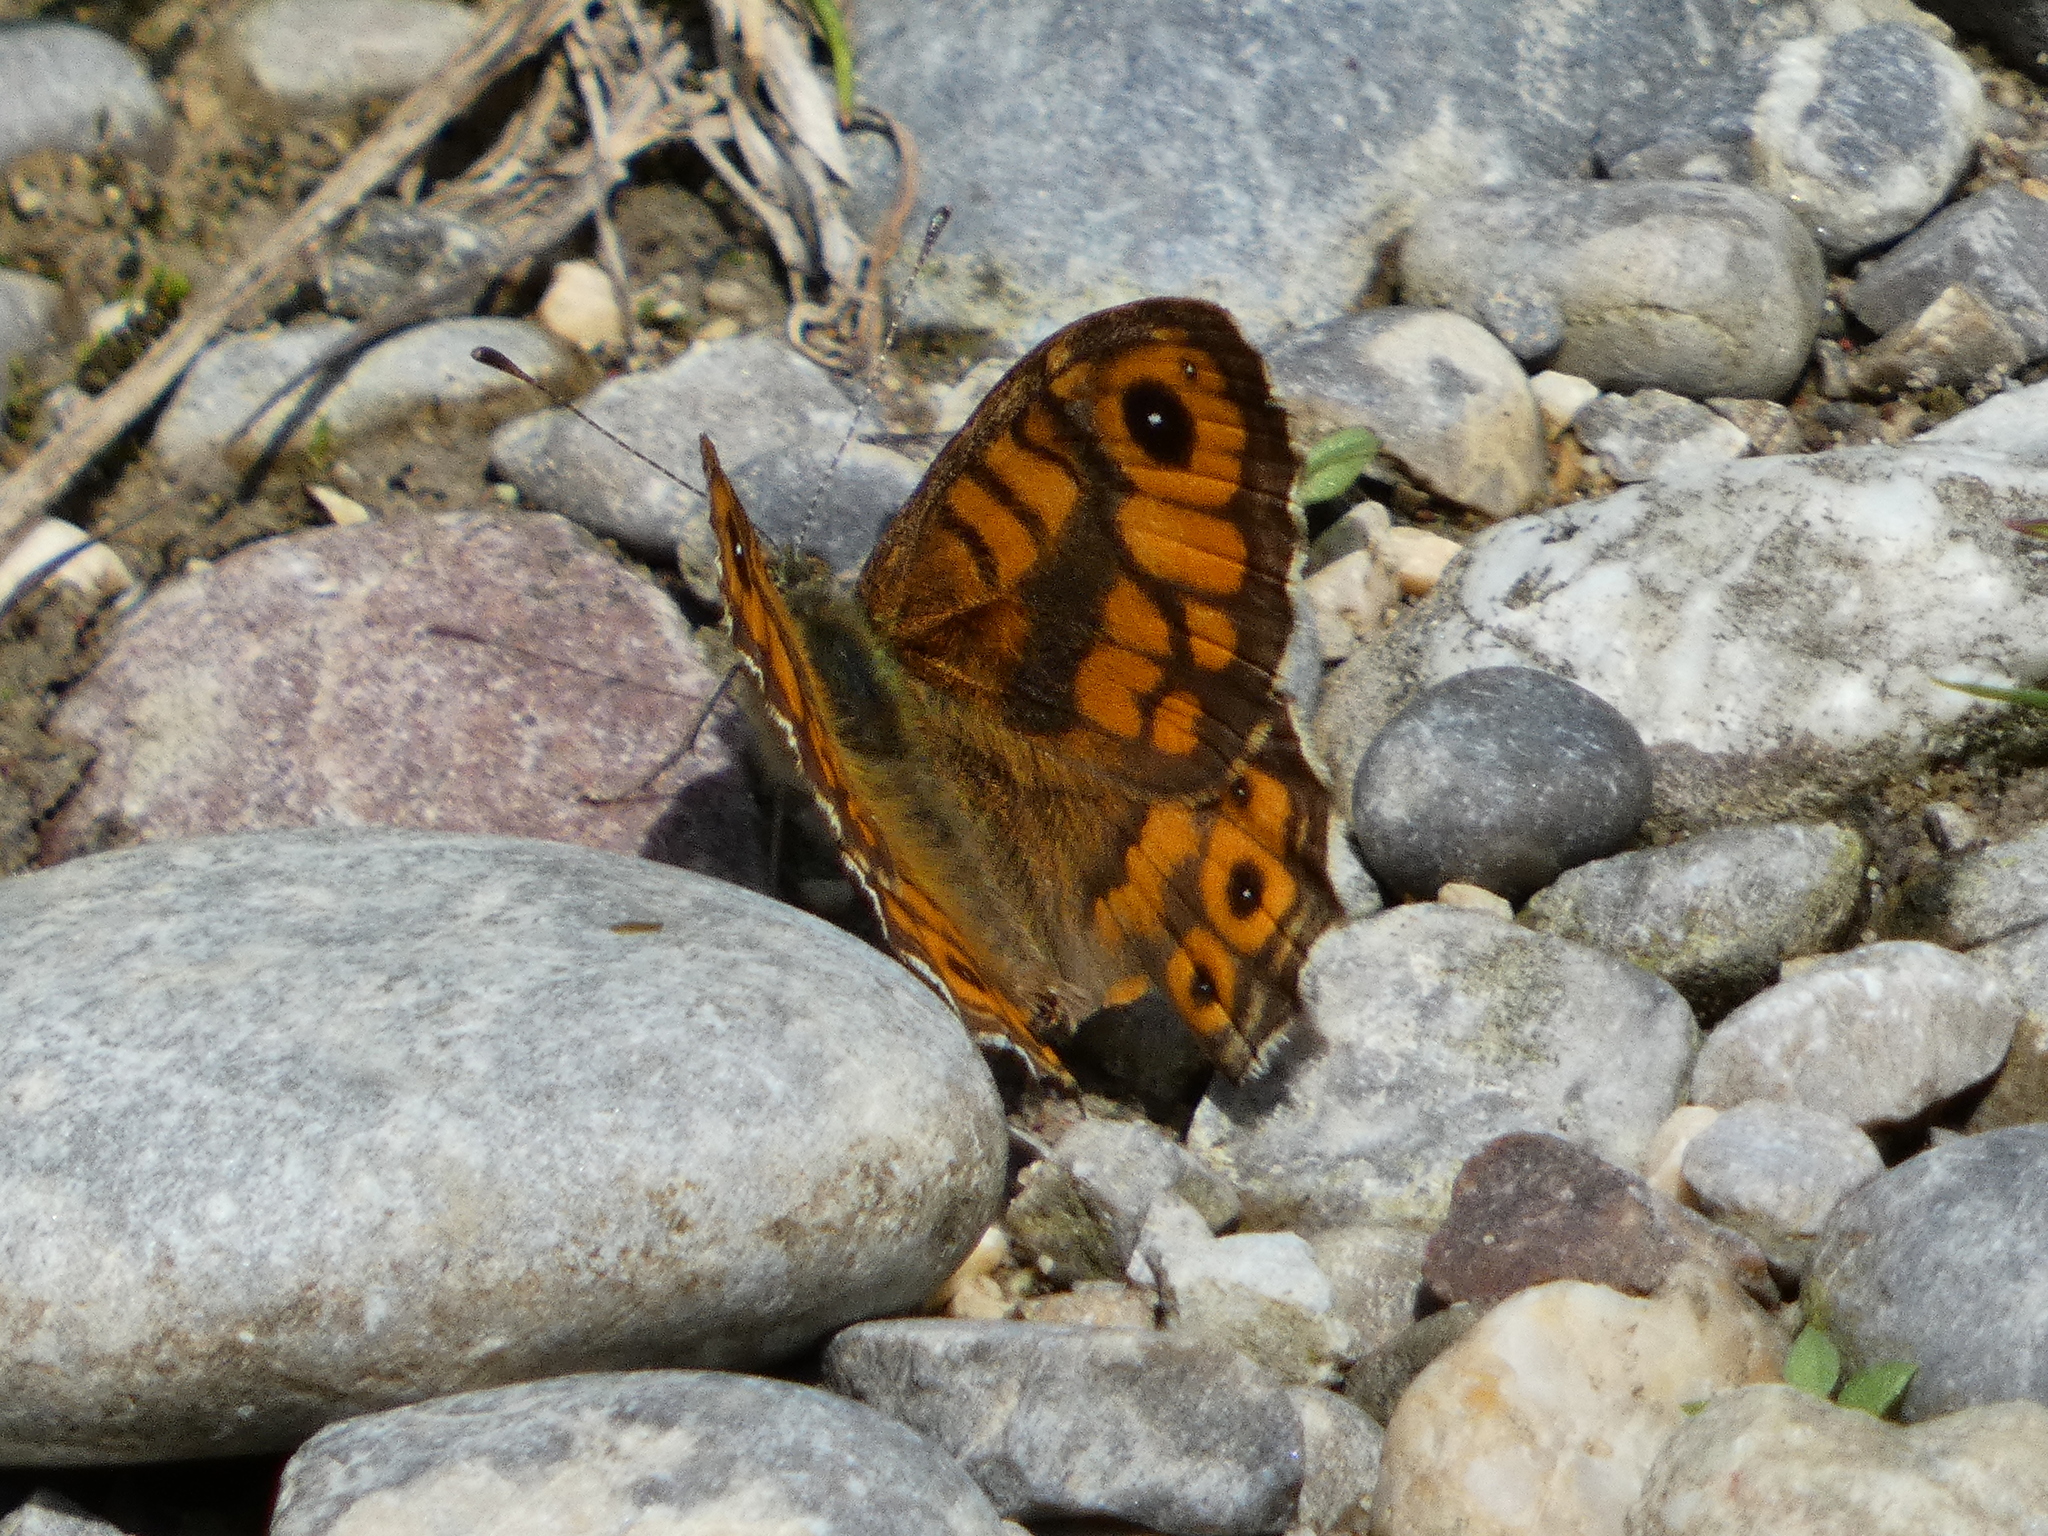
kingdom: Animalia
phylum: Arthropoda
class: Insecta
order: Lepidoptera
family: Nymphalidae
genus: Pararge
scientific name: Pararge Lasiommata megera
